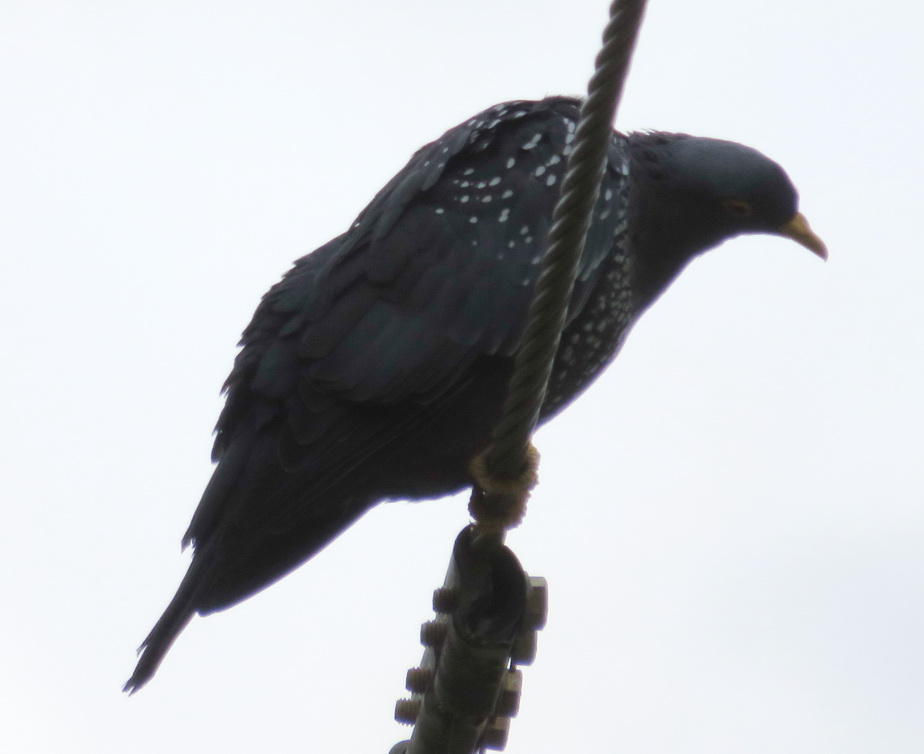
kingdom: Animalia
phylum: Chordata
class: Aves
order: Columbiformes
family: Columbidae
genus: Columba
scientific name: Columba arquatrix
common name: African olive pigeon
